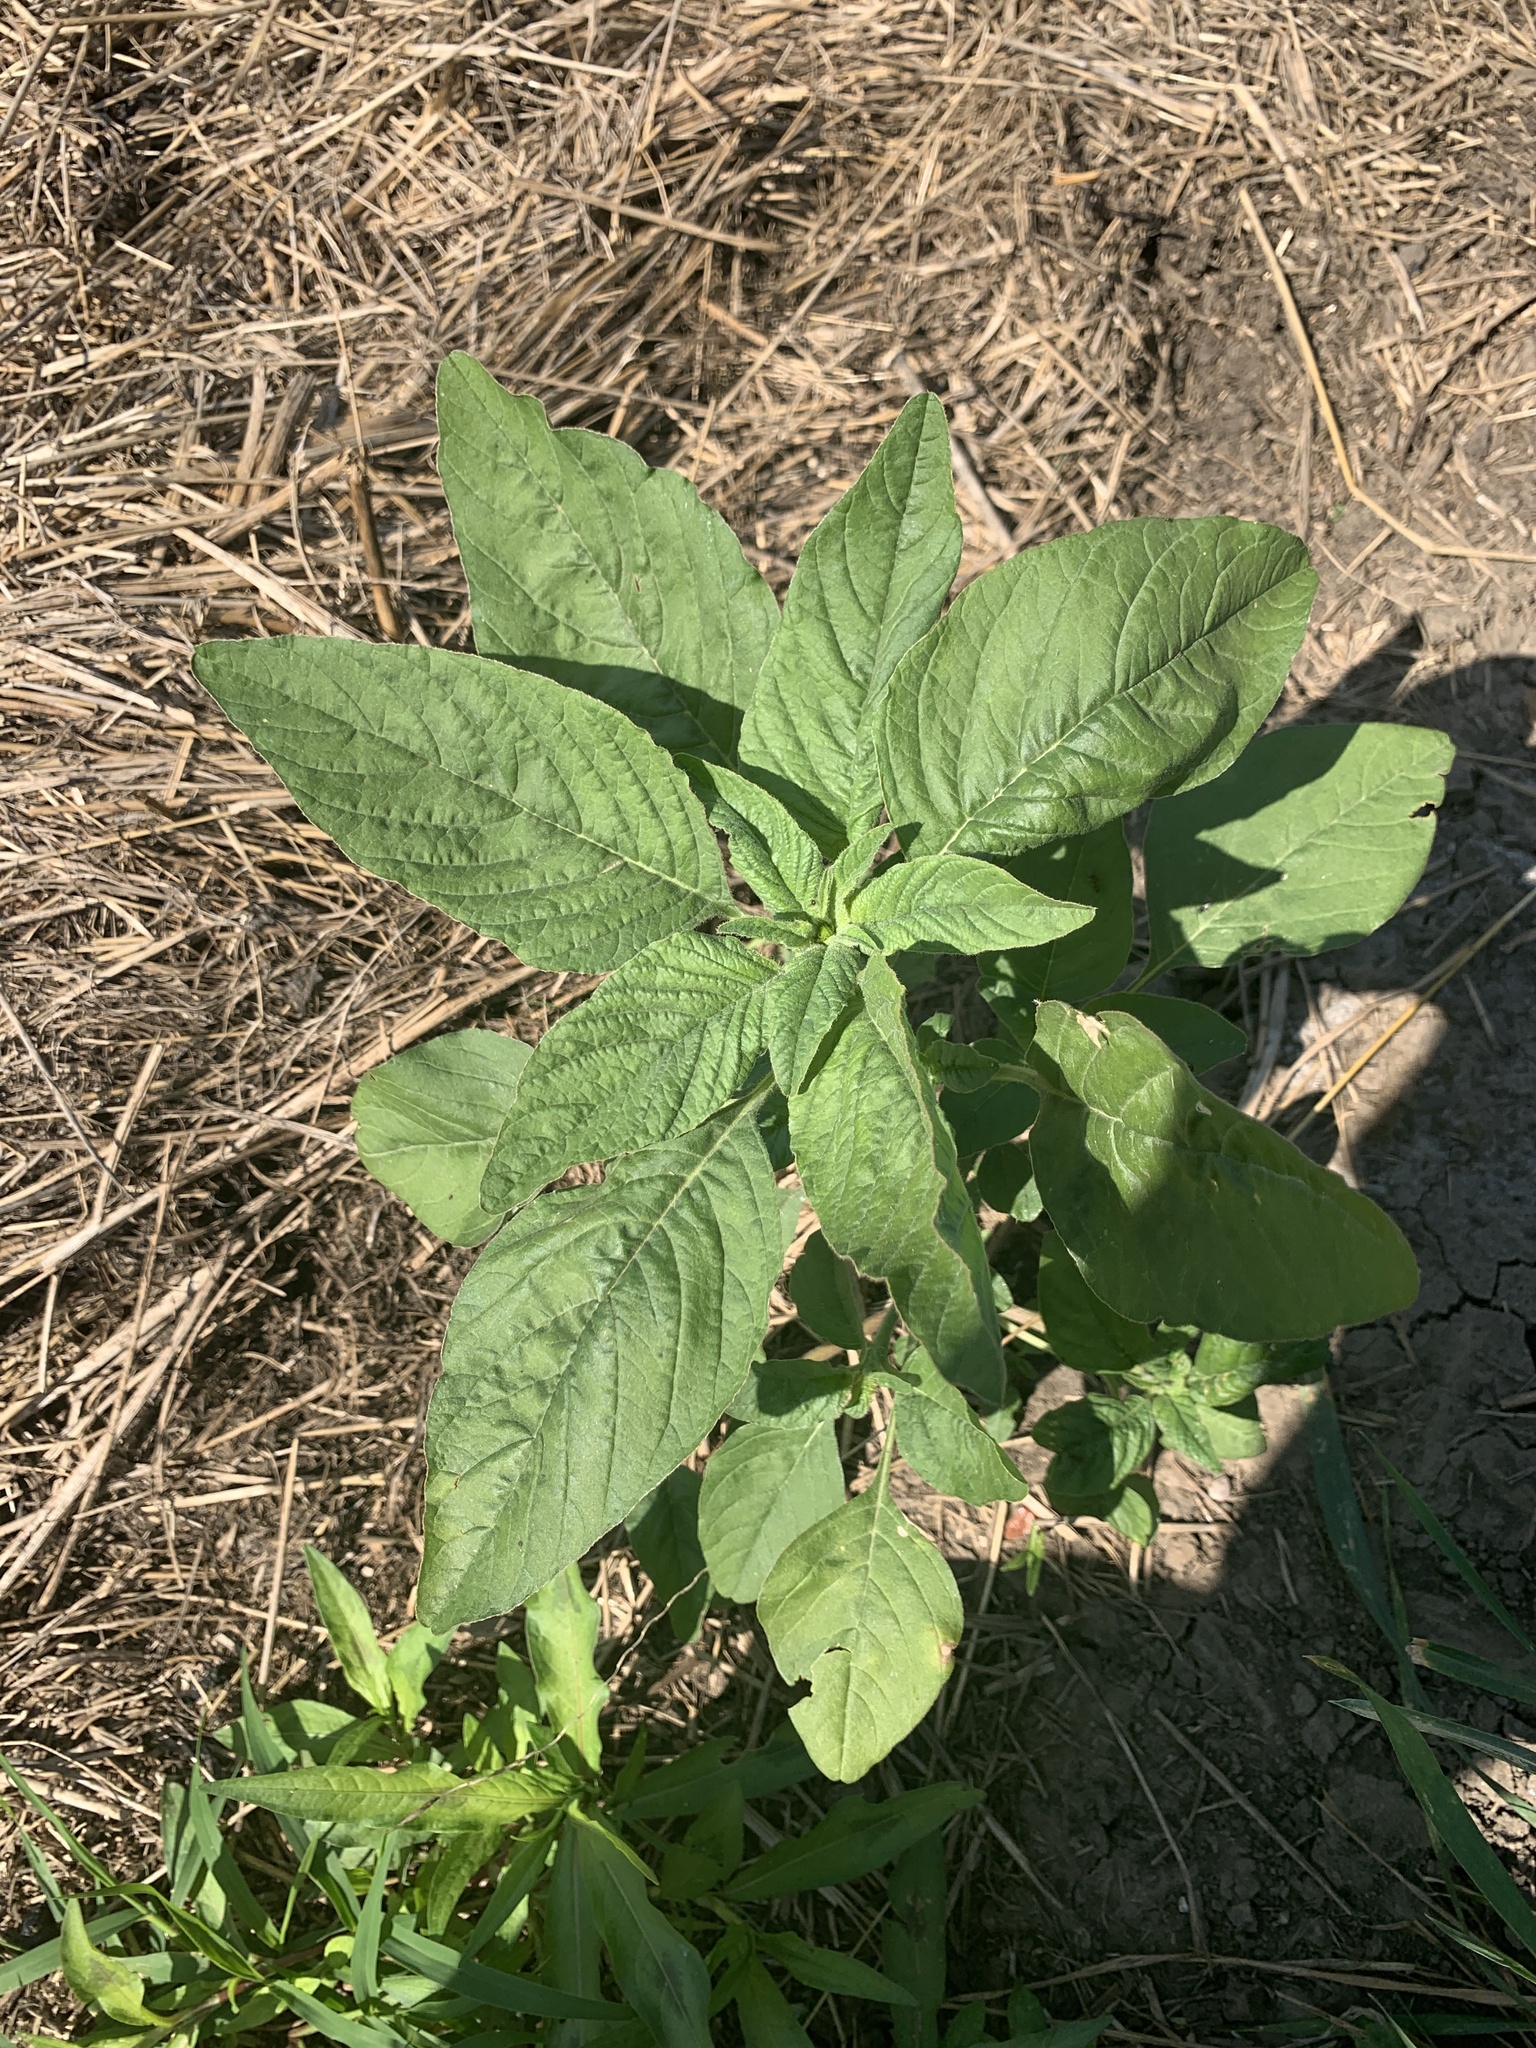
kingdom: Plantae
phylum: Tracheophyta
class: Magnoliopsida
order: Caryophyllales
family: Amaranthaceae
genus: Amaranthus
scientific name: Amaranthus retroflexus
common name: Redroot amaranth
